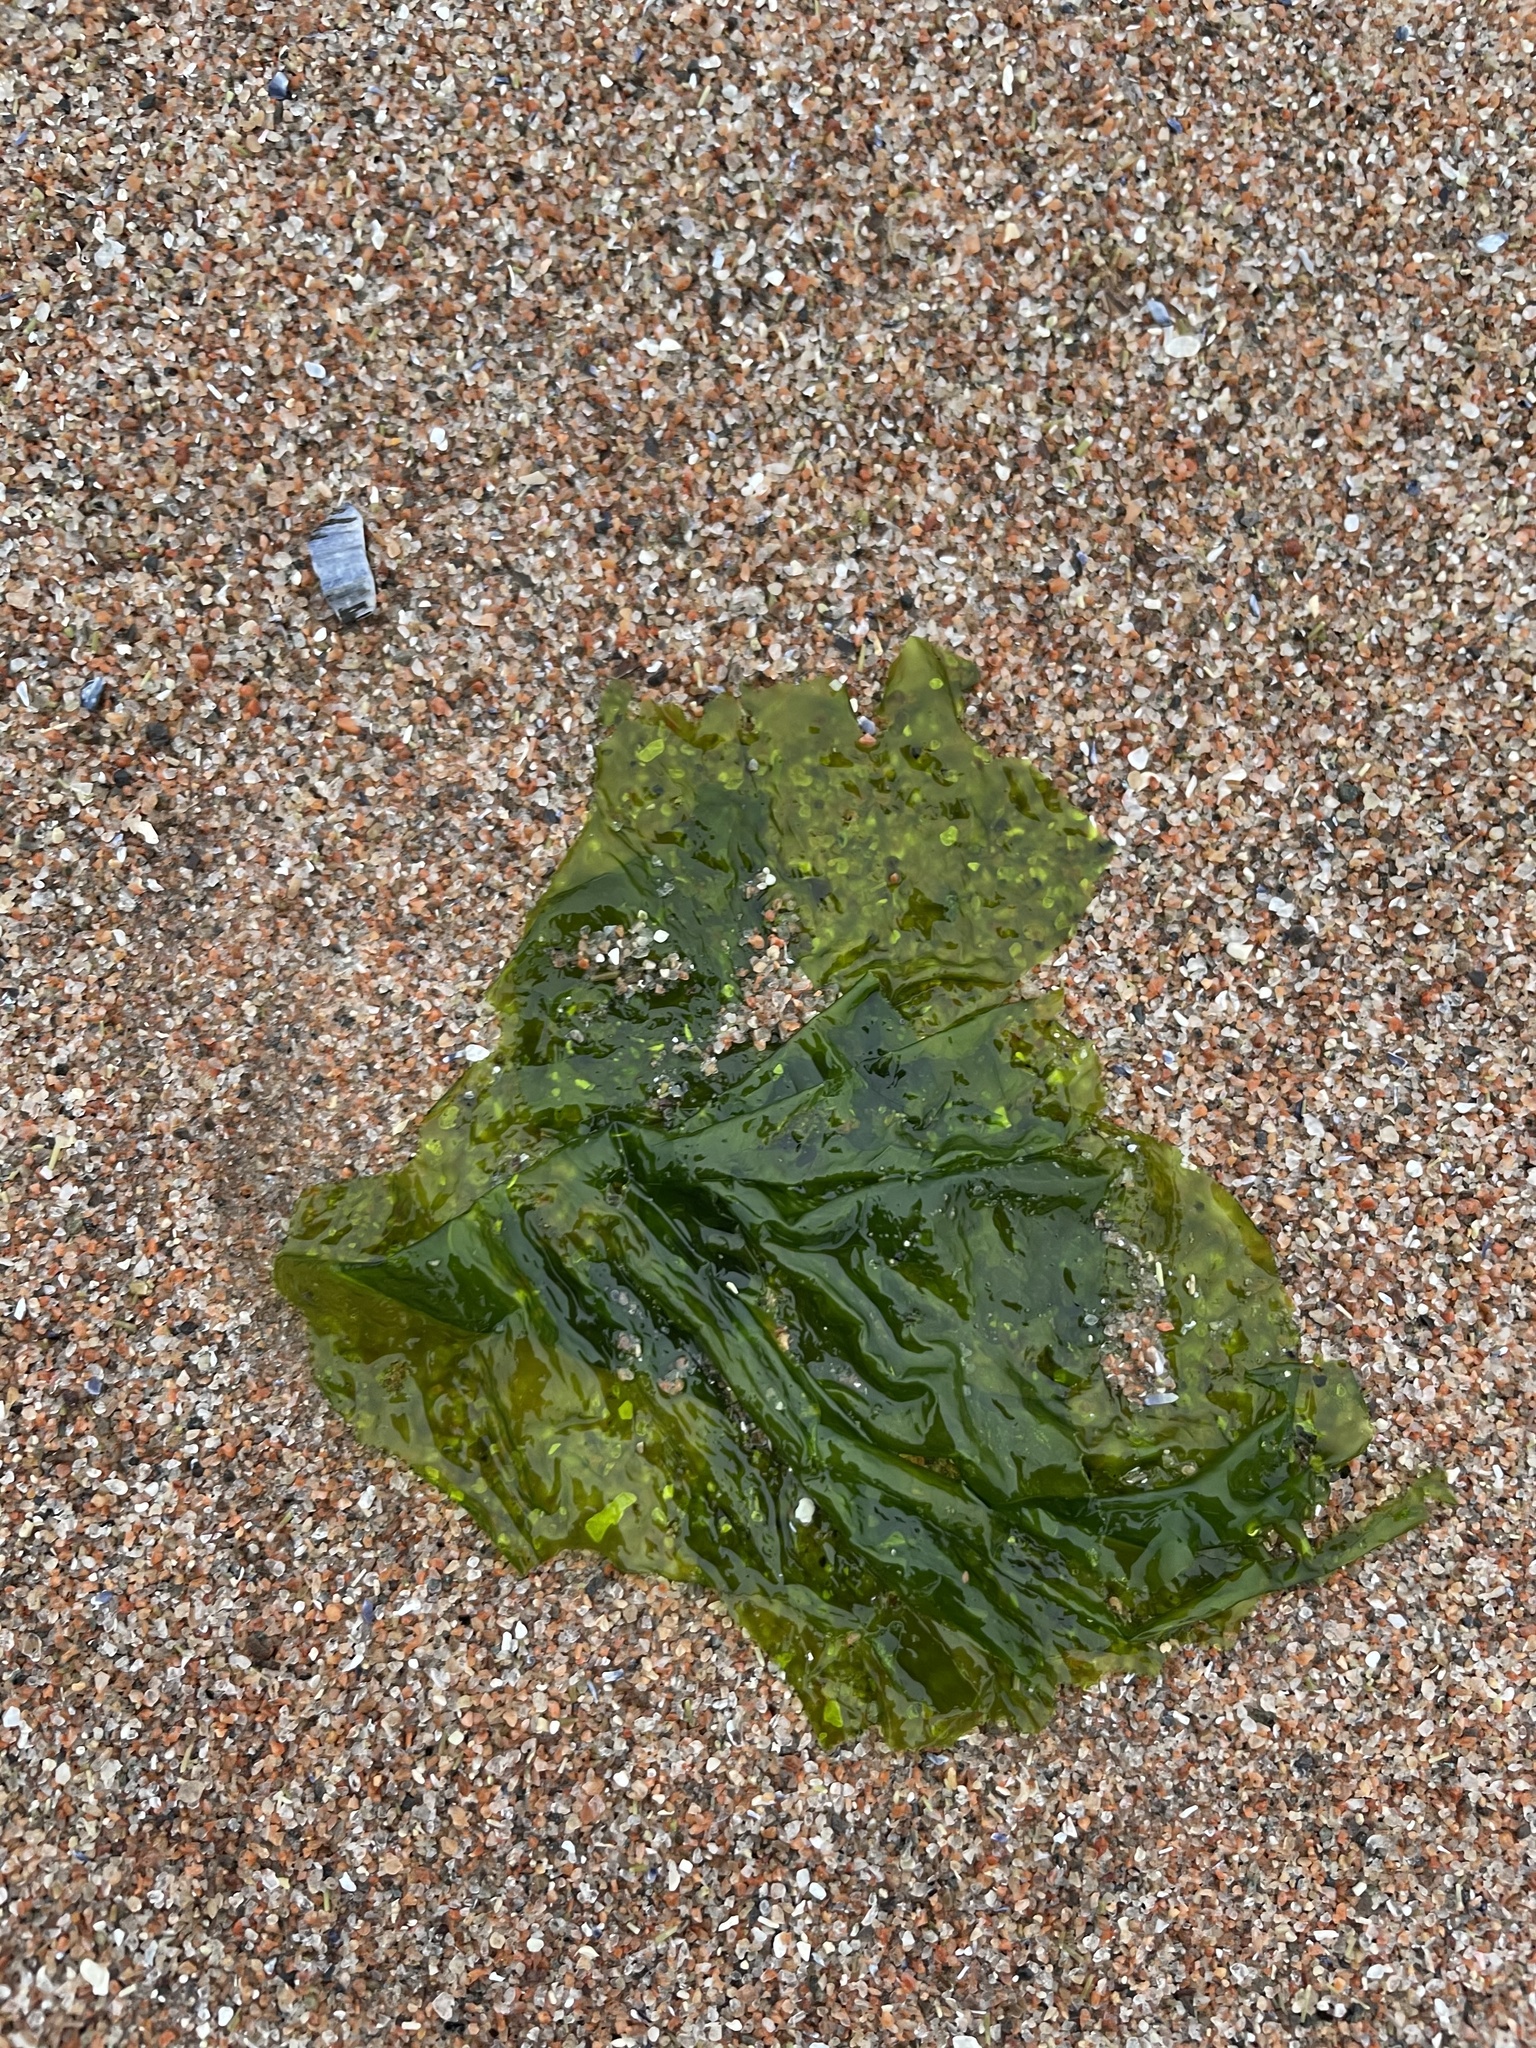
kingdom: Plantae
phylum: Chlorophyta
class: Ulvophyceae
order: Ulvales
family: Ulvaceae
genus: Ulva
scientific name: Ulva lactuca
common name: Sea lettuce
